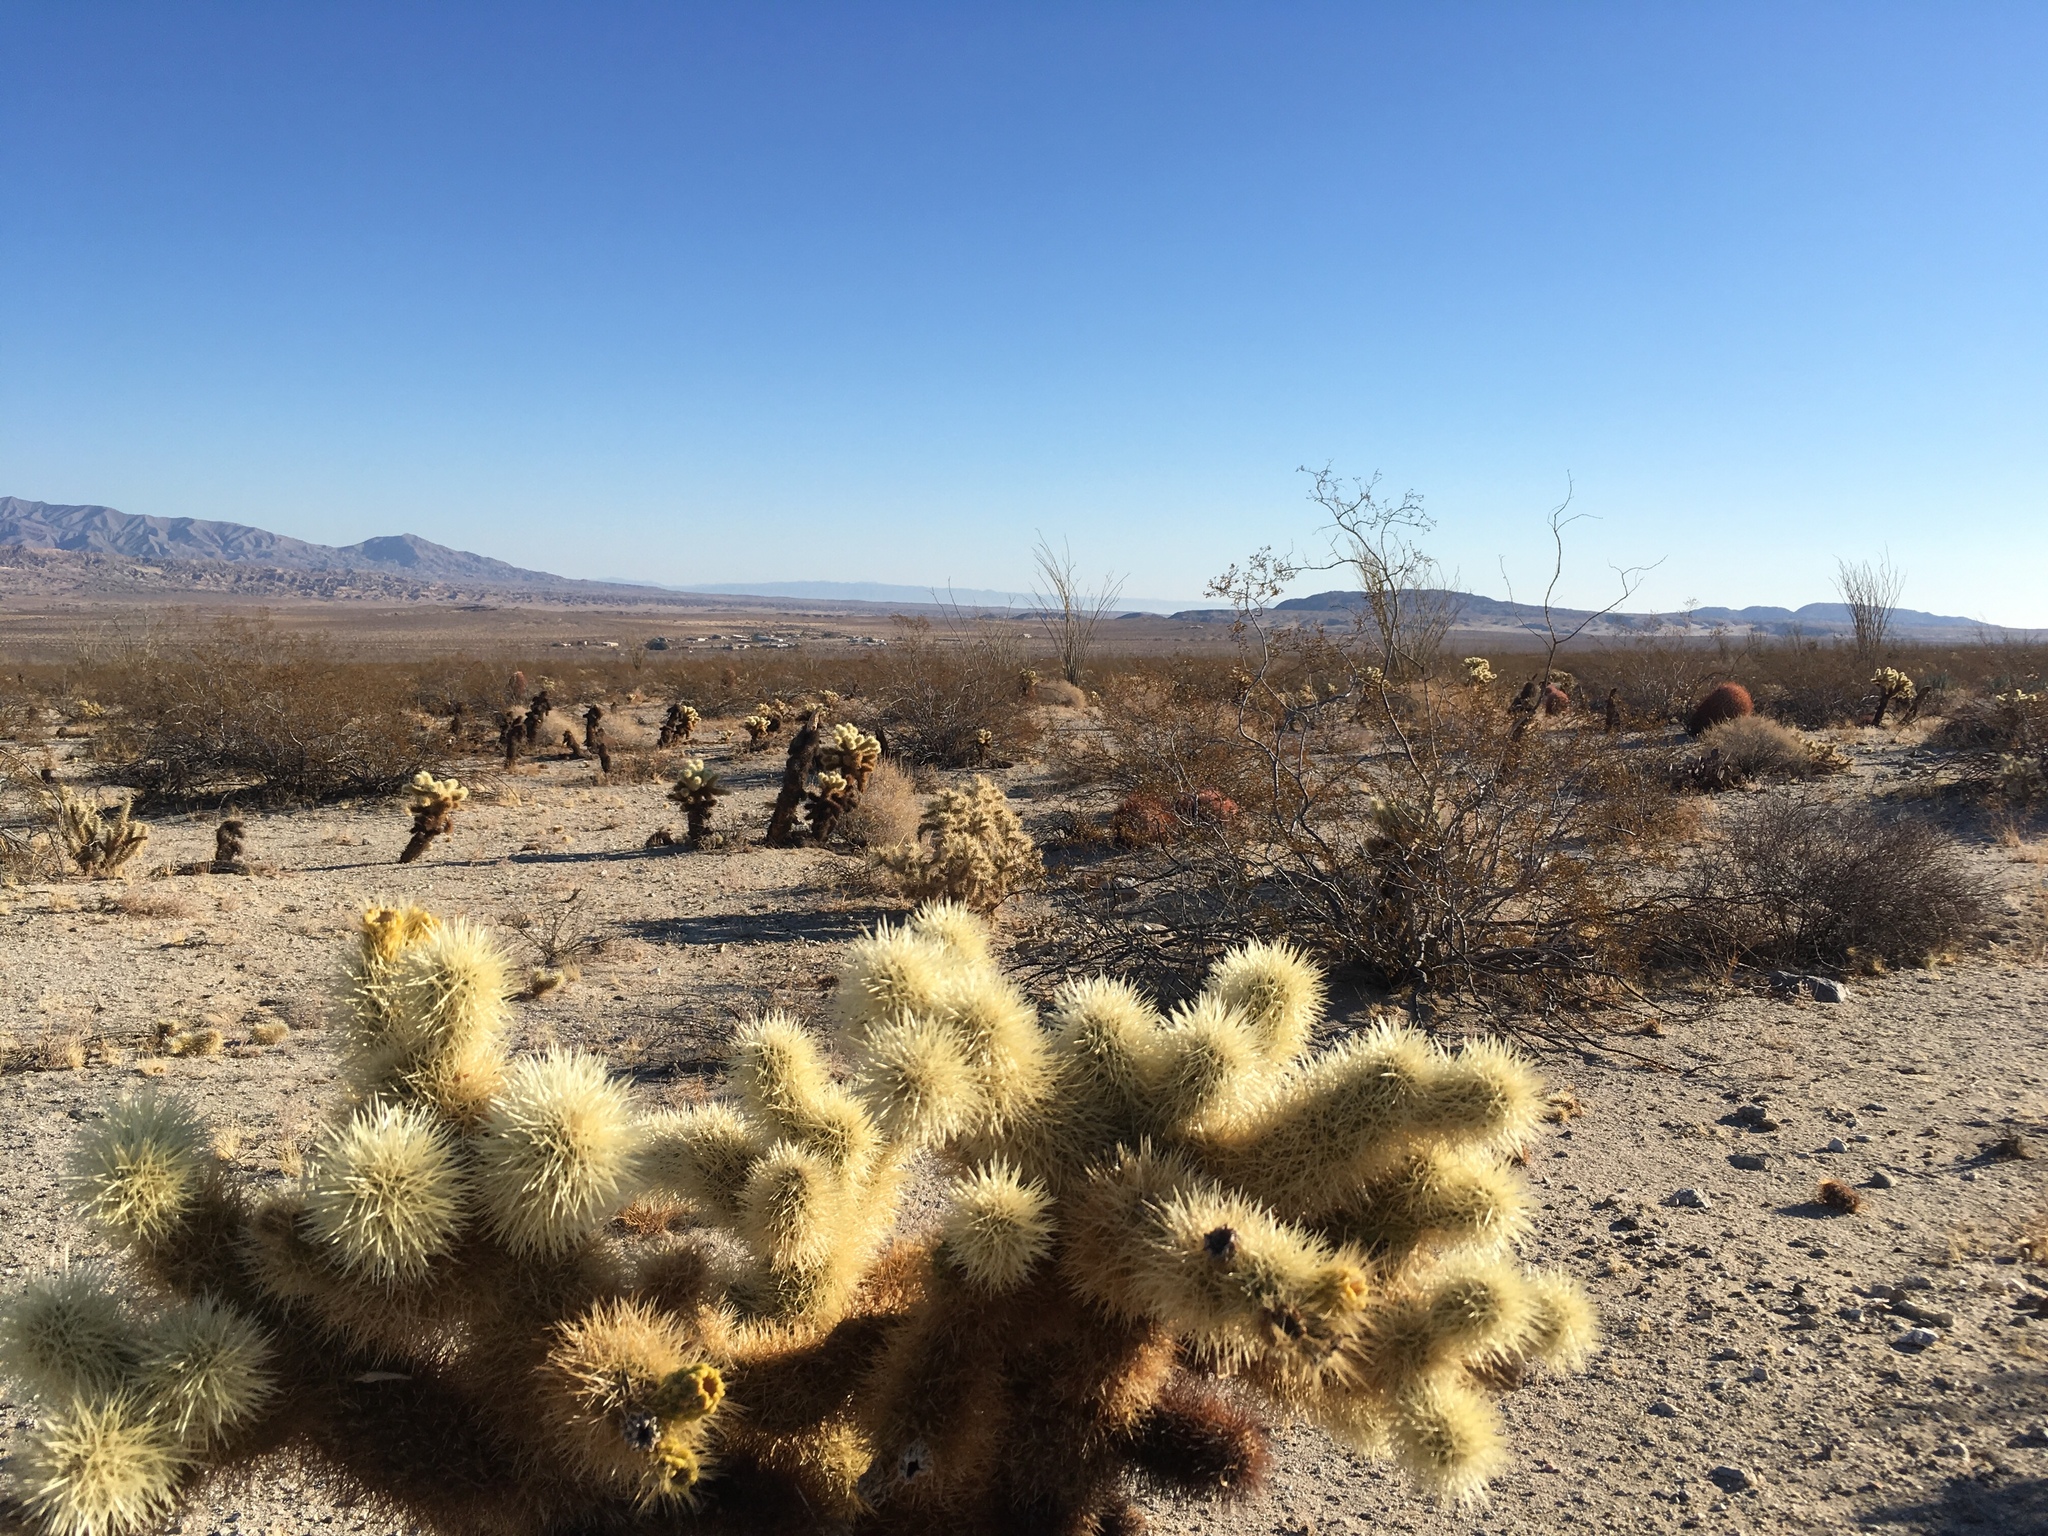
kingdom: Plantae
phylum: Tracheophyta
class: Magnoliopsida
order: Caryophyllales
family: Cactaceae
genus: Cylindropuntia
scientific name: Cylindropuntia fosbergii
